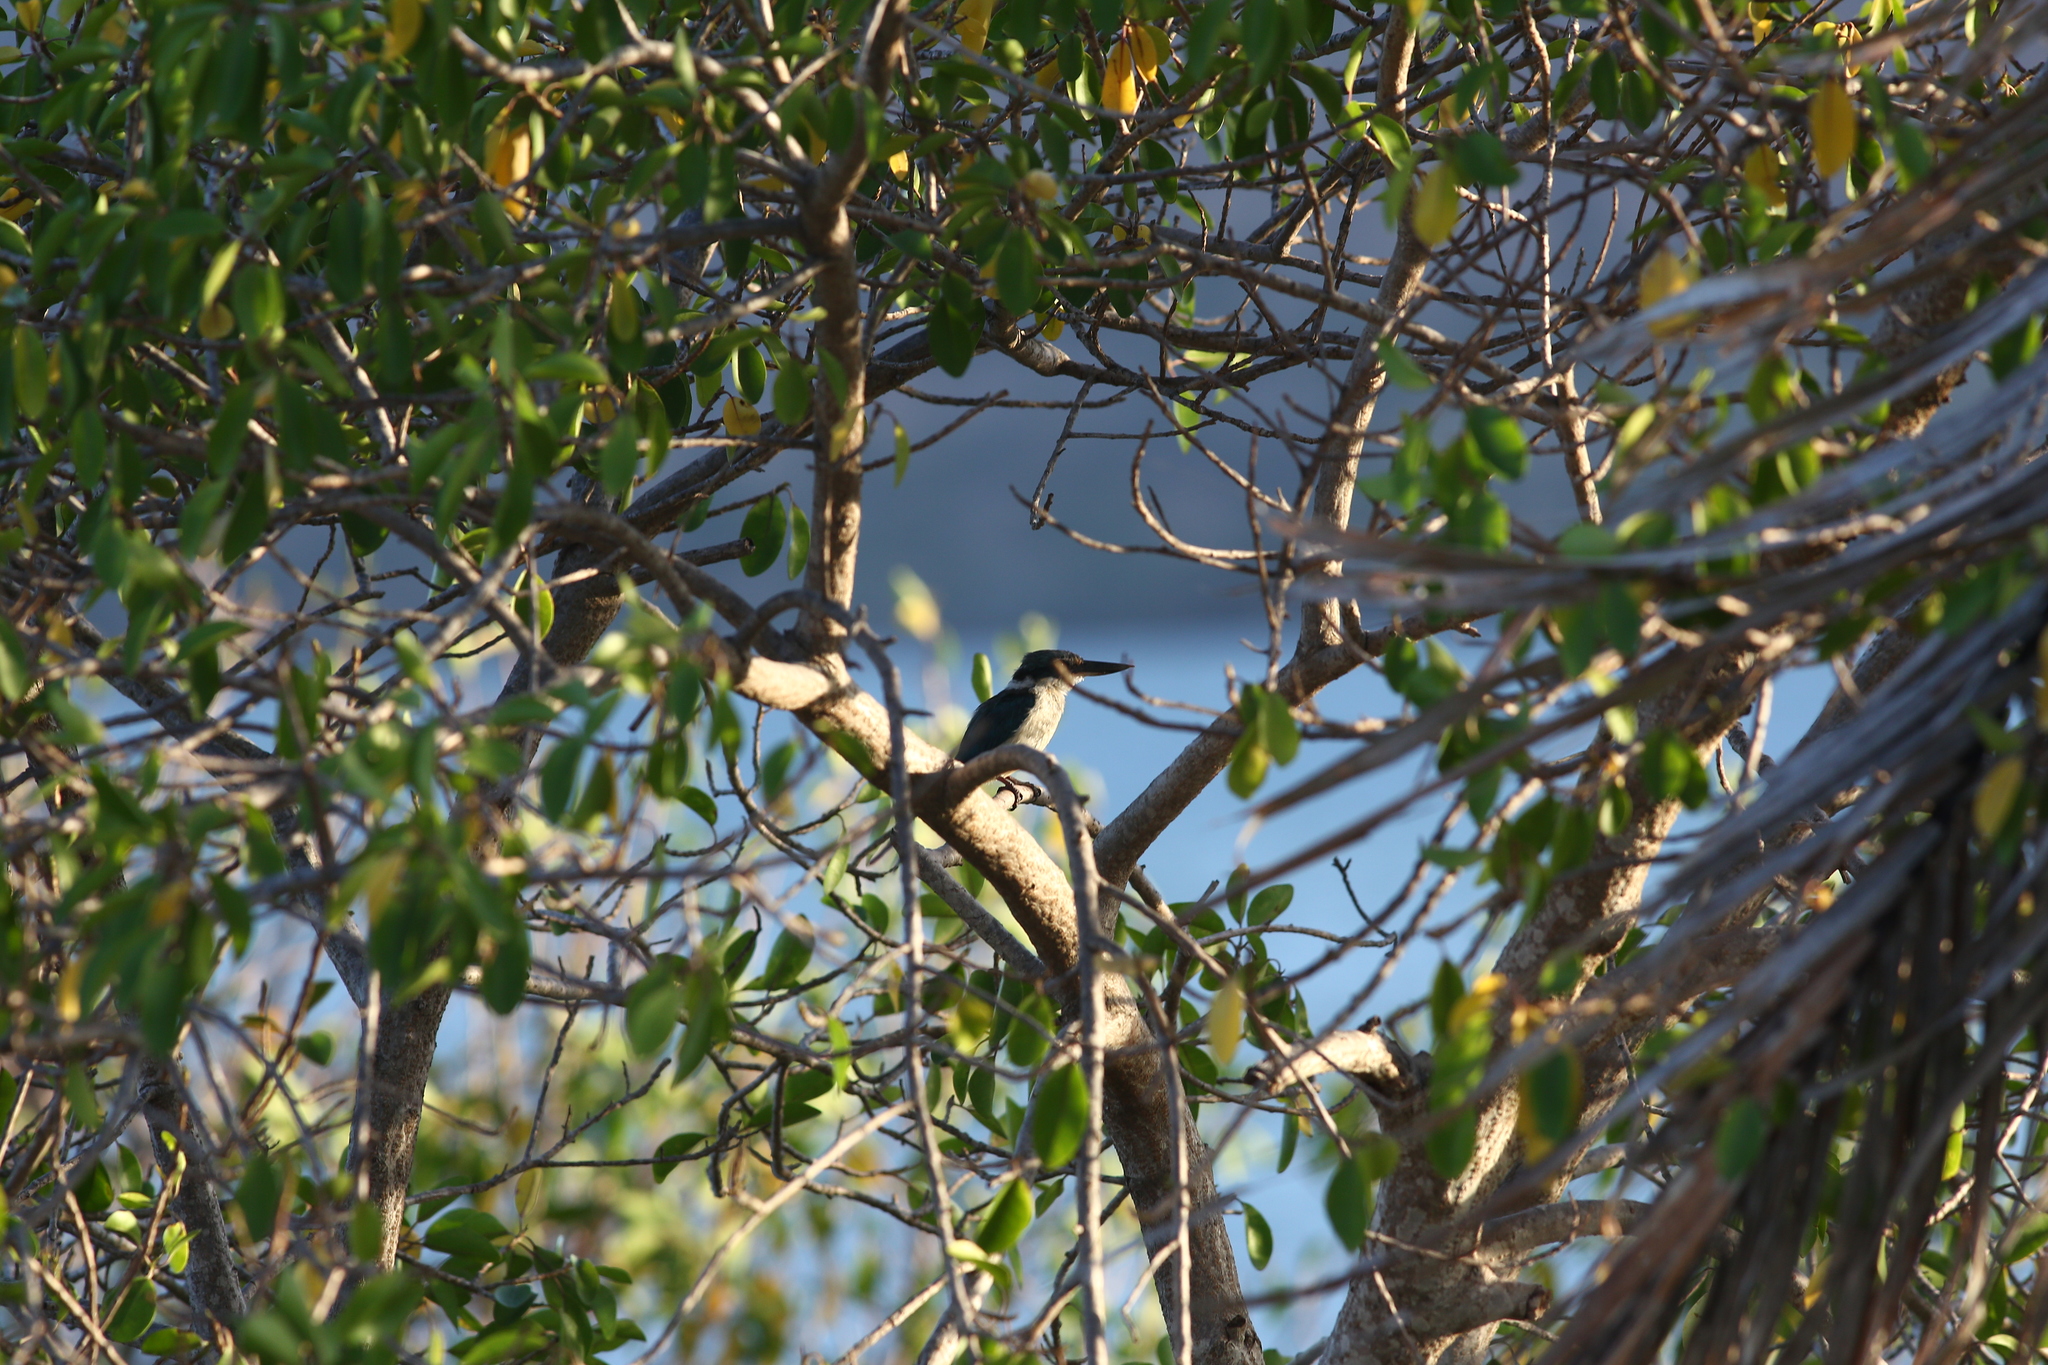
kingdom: Animalia
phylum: Chordata
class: Aves
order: Coraciiformes
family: Alcedinidae
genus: Todiramphus
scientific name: Todiramphus sanctus
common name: Sacred kingfisher
